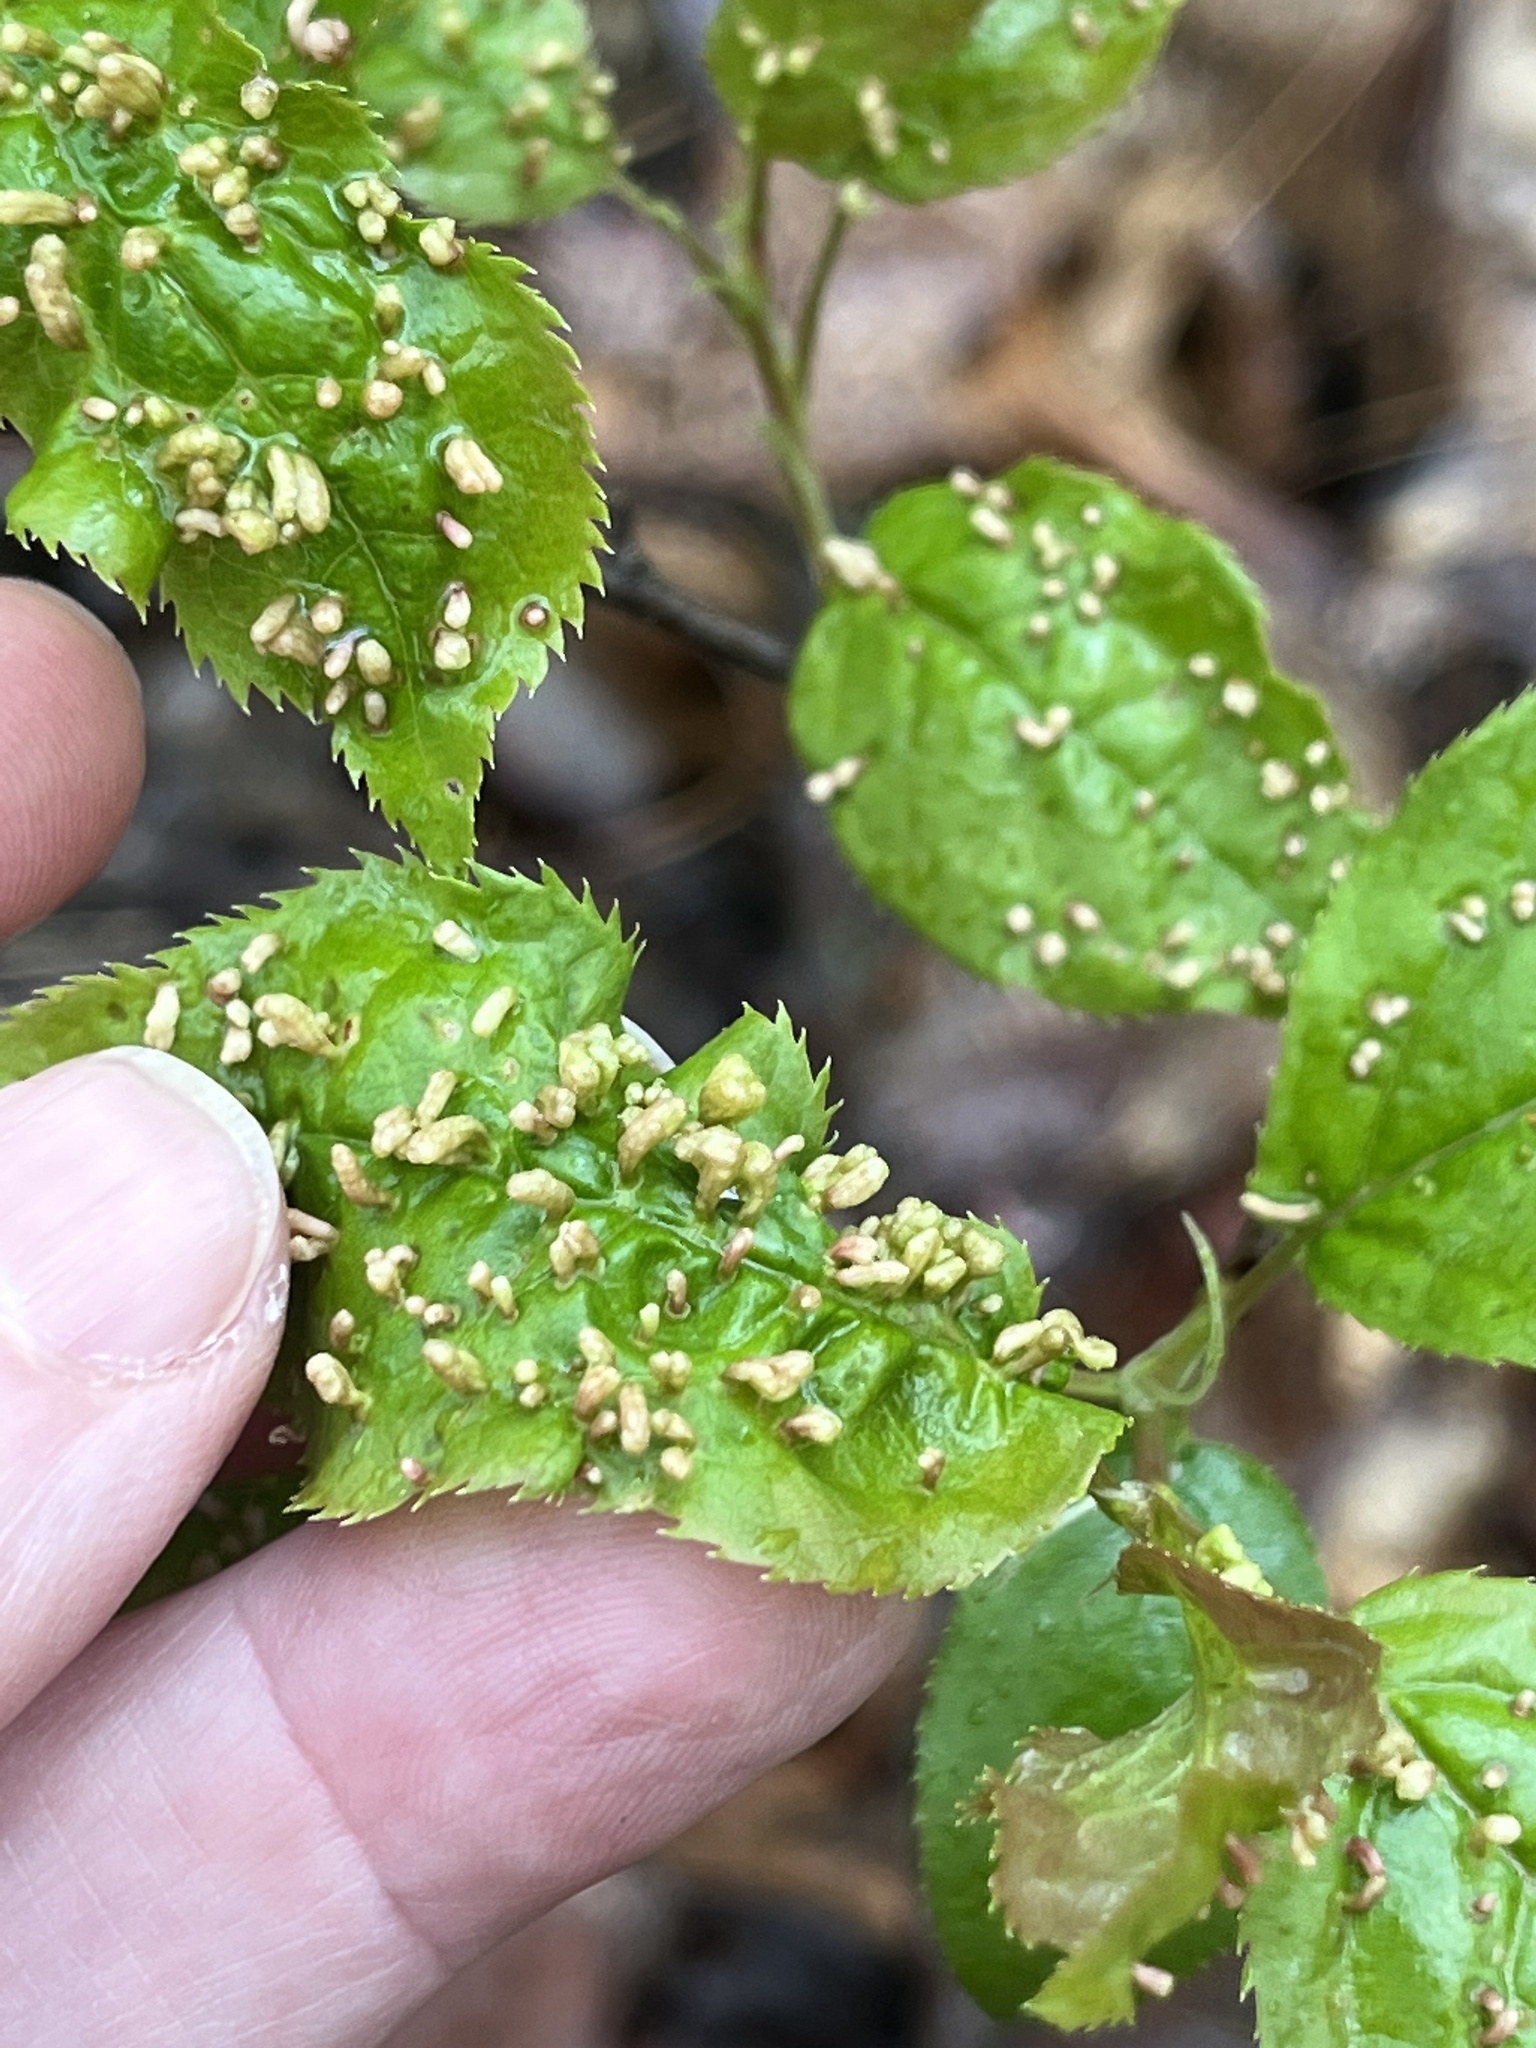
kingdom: Animalia
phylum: Arthropoda
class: Arachnida
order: Trombidiformes
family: Eriophyidae
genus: Eriophyes
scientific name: Eriophyes emarginatae
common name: Plum leaf gall mite
